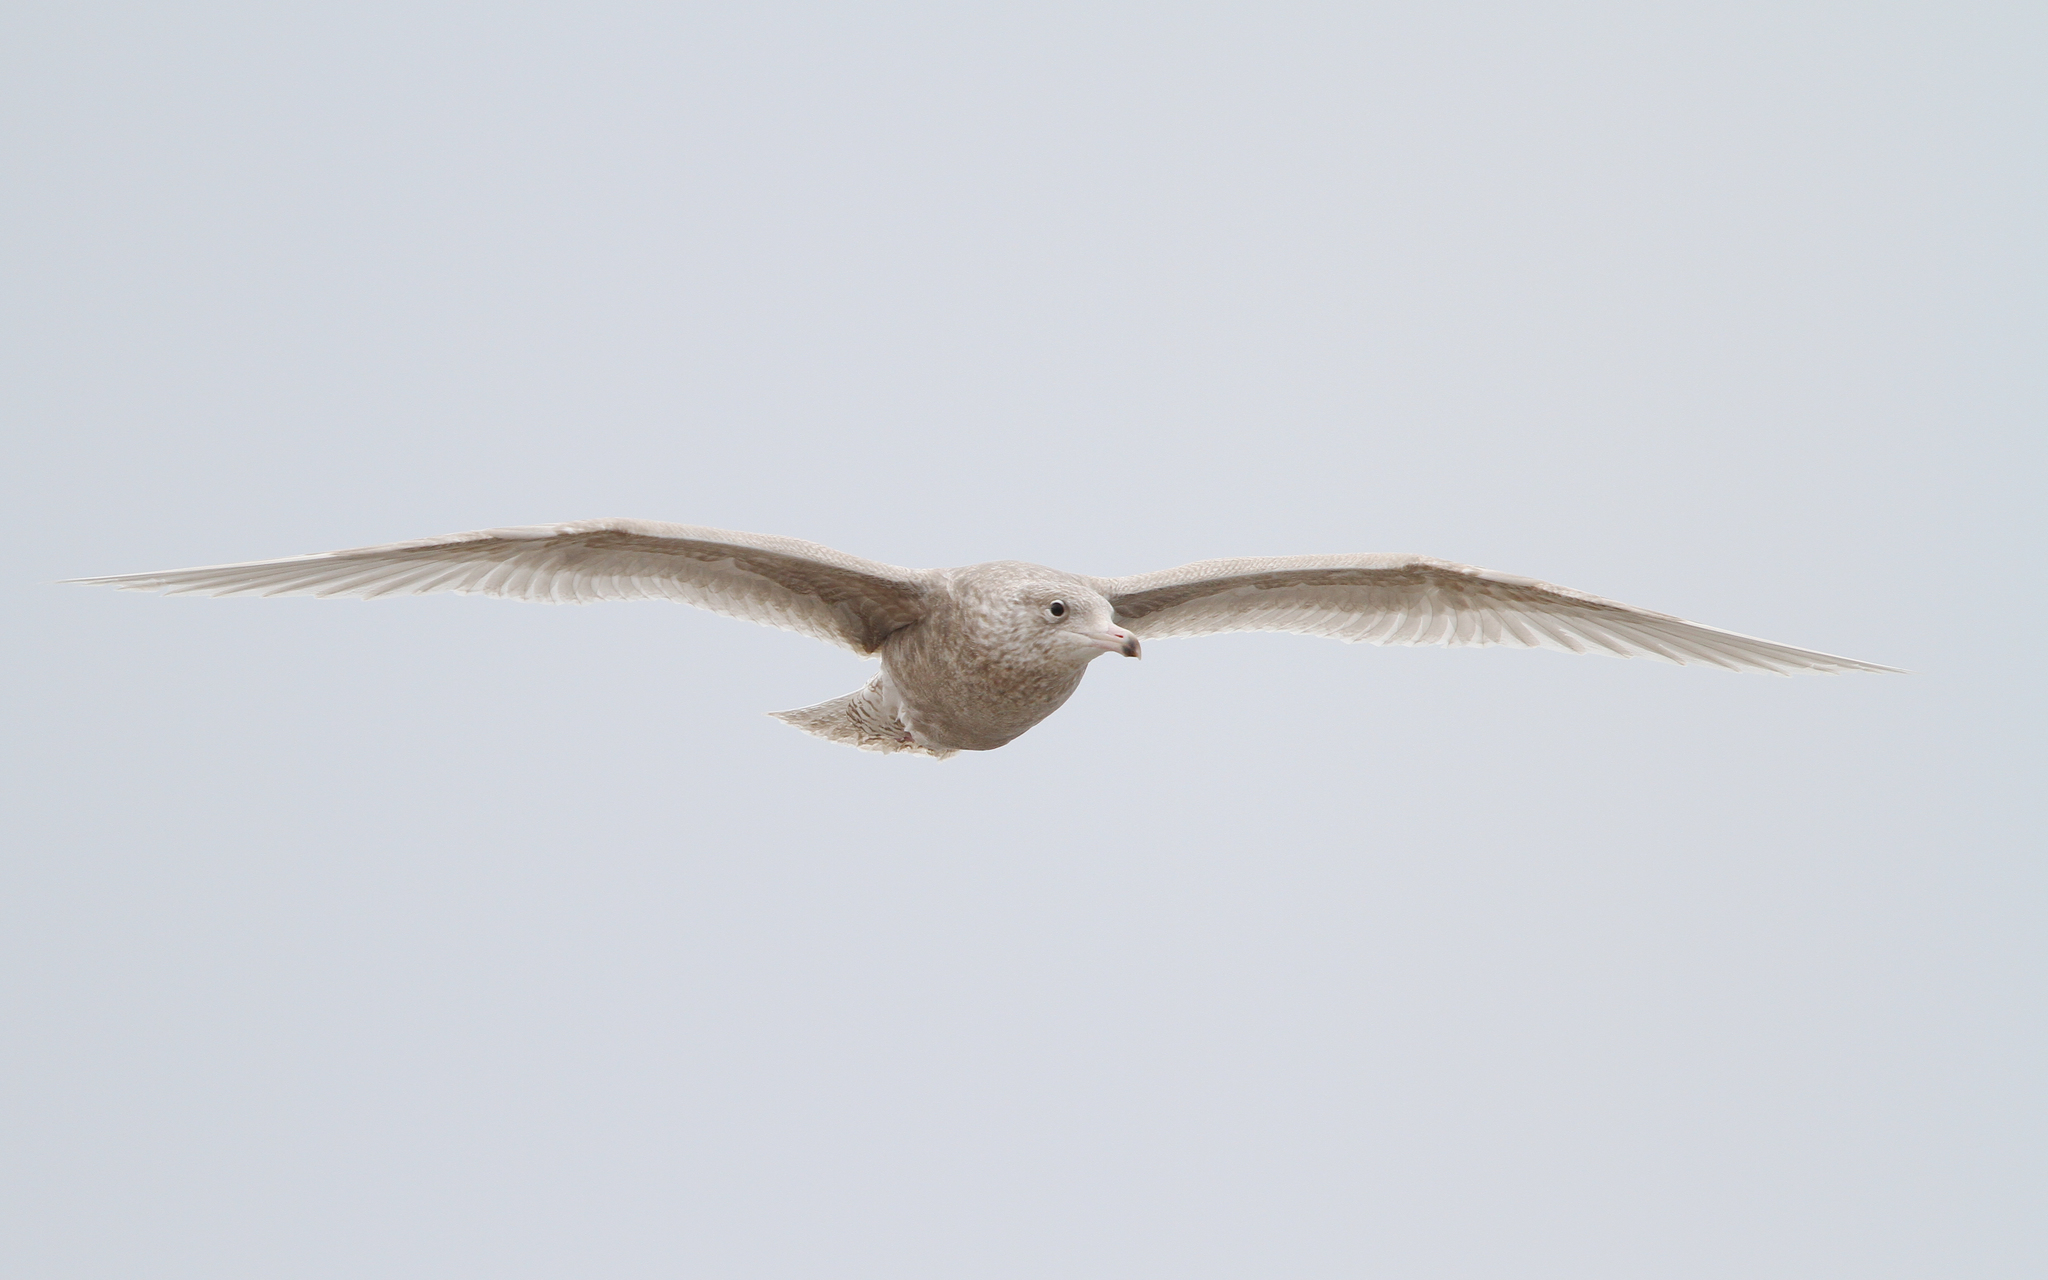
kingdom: Animalia
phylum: Chordata
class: Aves
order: Charadriiformes
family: Laridae
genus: Larus
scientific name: Larus hyperboreus
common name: Glaucous gull
